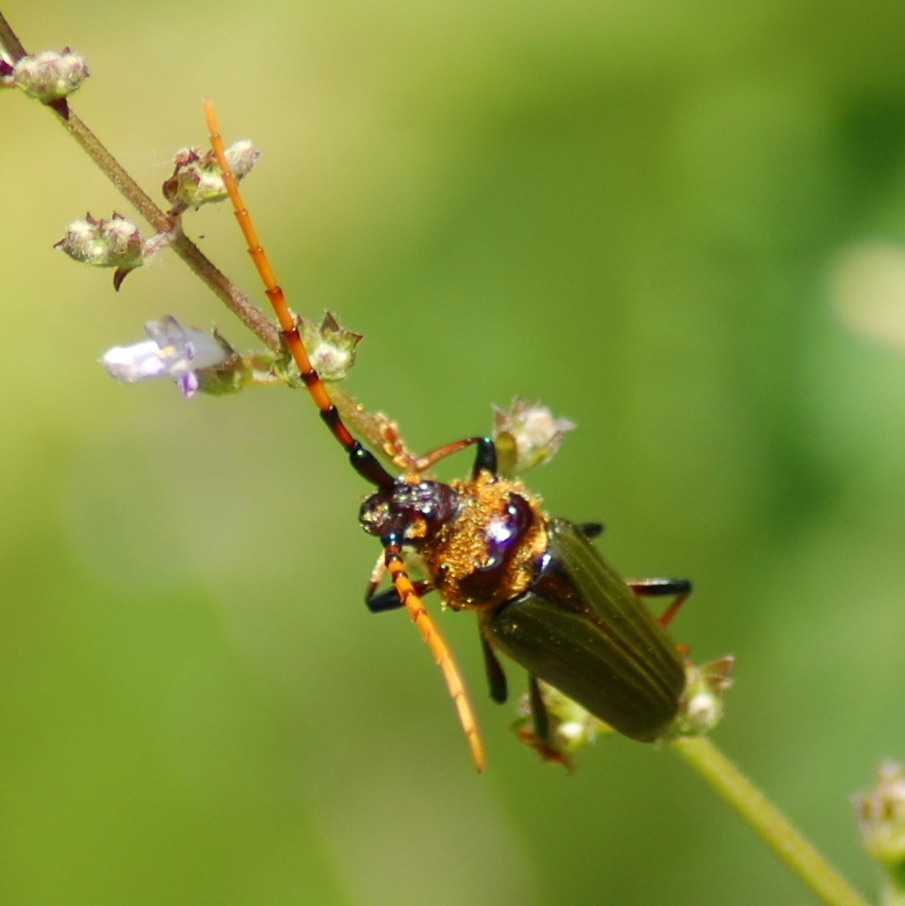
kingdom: Animalia
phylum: Arthropoda
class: Insecta
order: Coleoptera
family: Cerambycidae
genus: Retrachydes
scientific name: Retrachydes thoracicus
